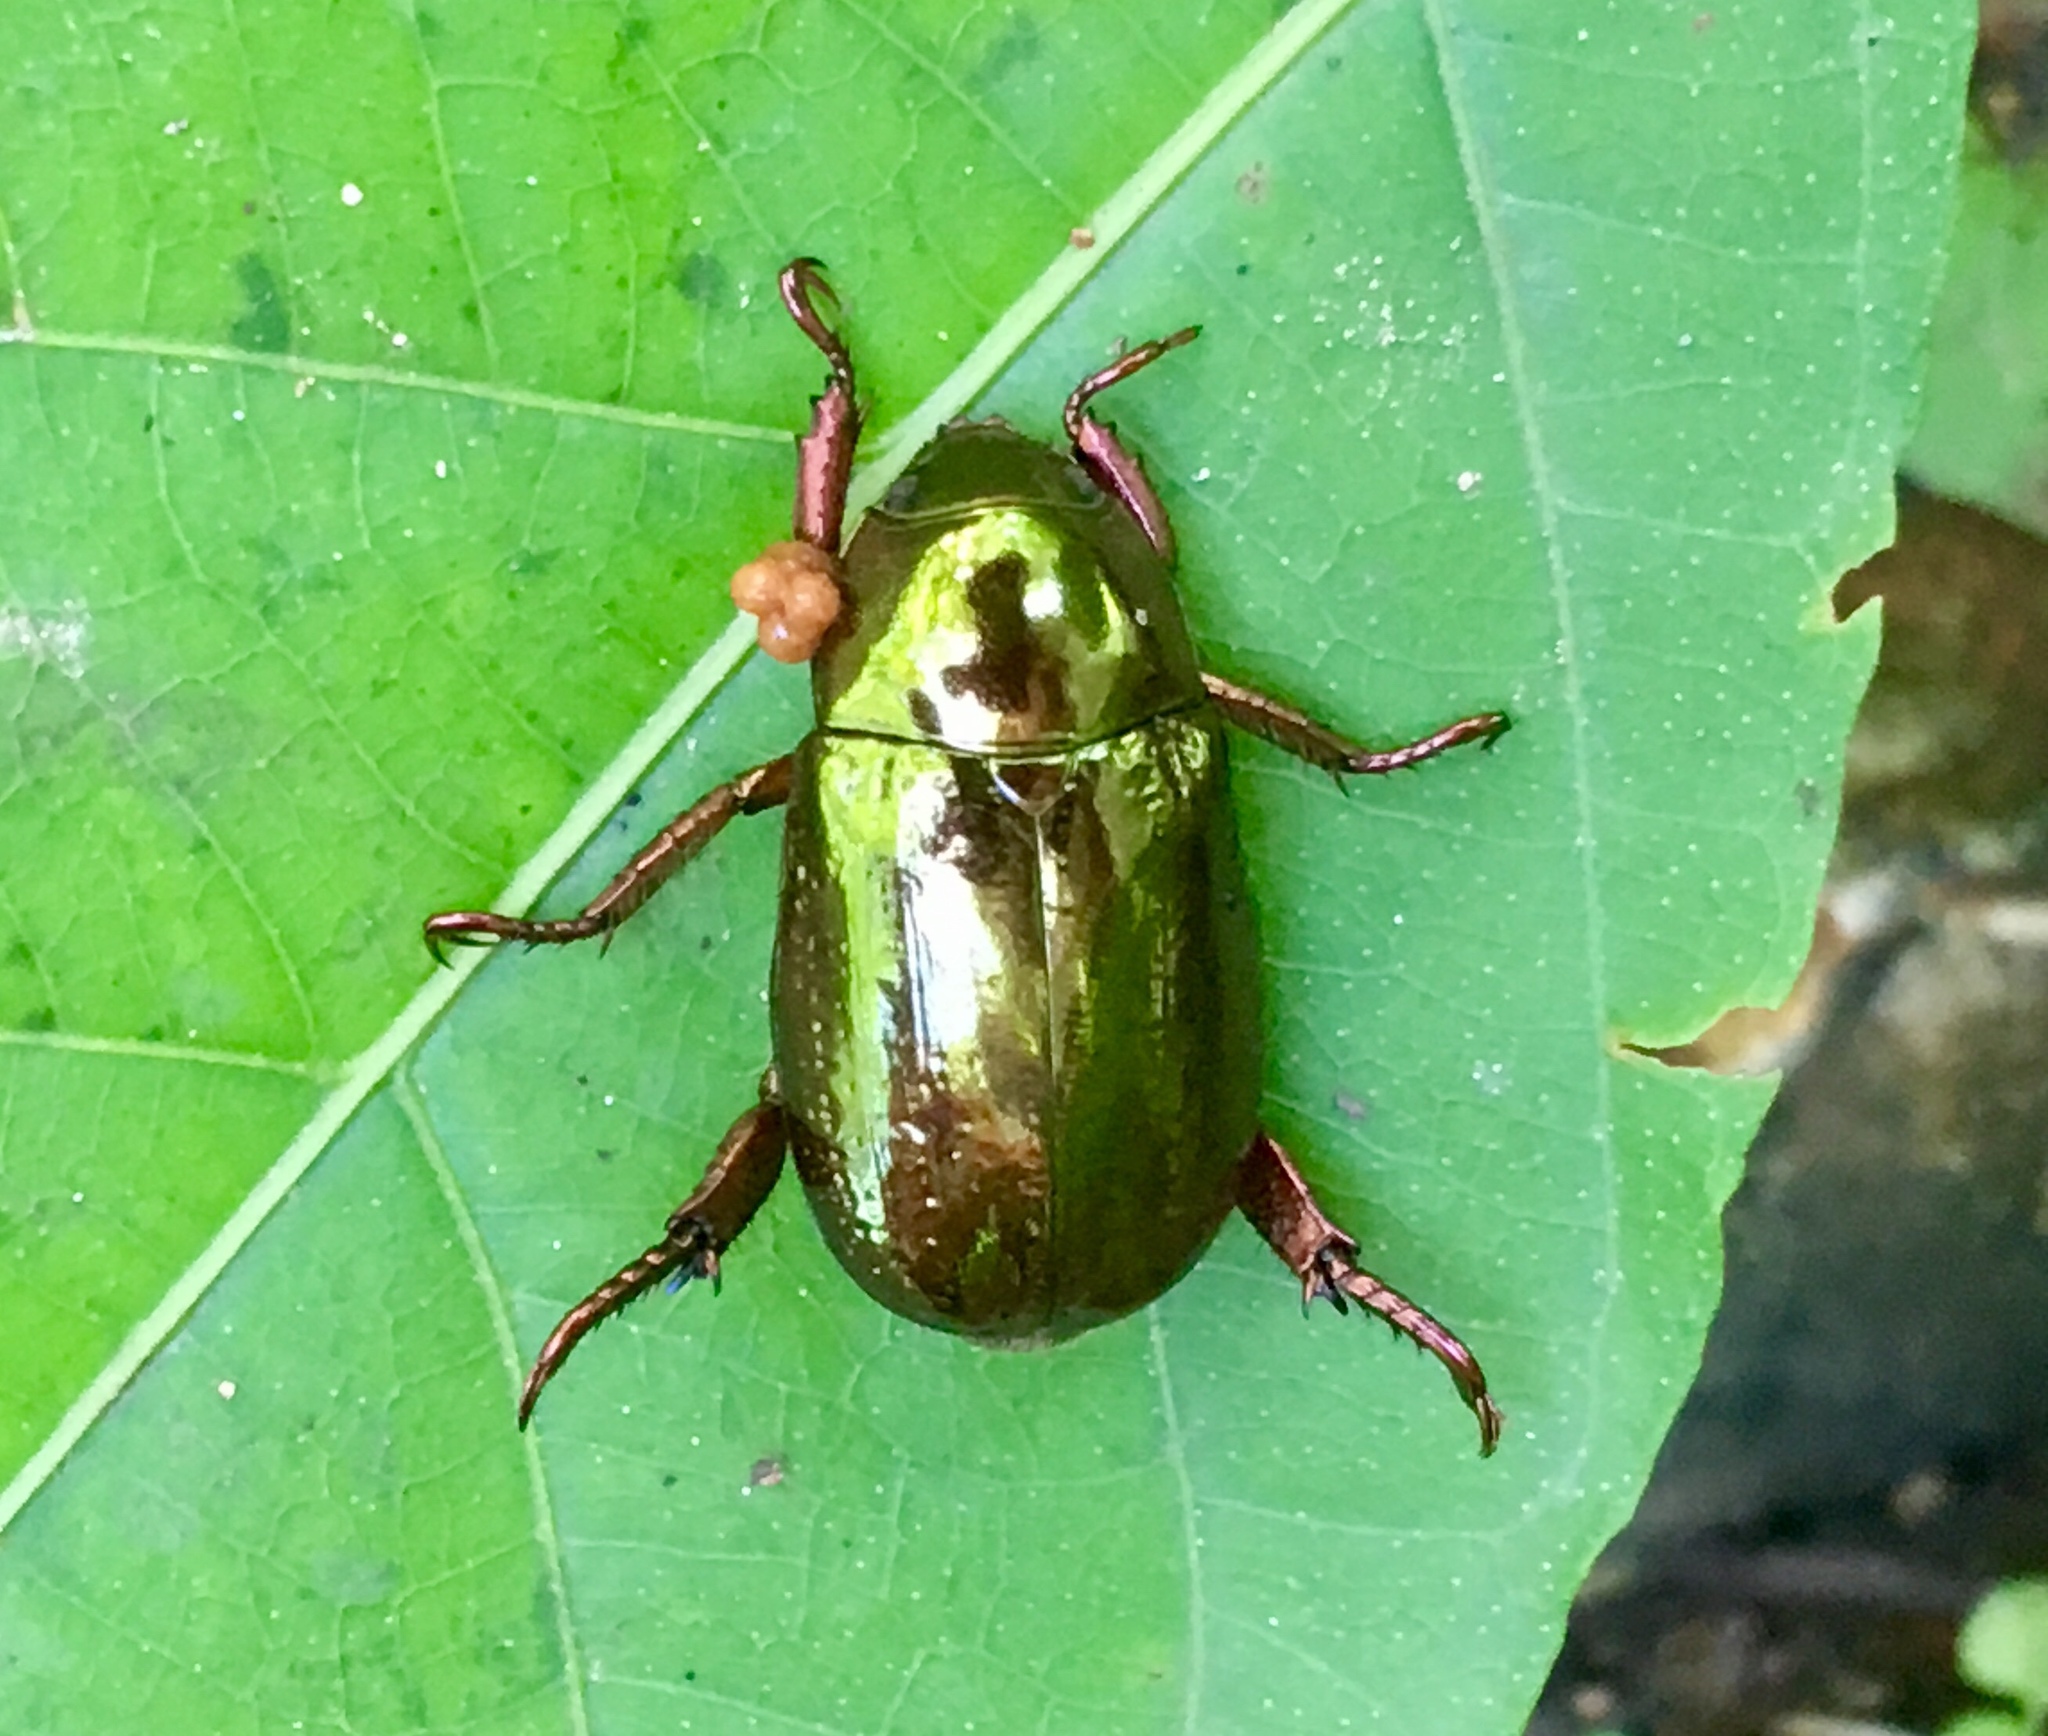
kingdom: Animalia
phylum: Arthropoda
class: Insecta
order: Coleoptera
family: Scarabaeidae
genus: Pelidnota
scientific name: Pelidnota glabra
